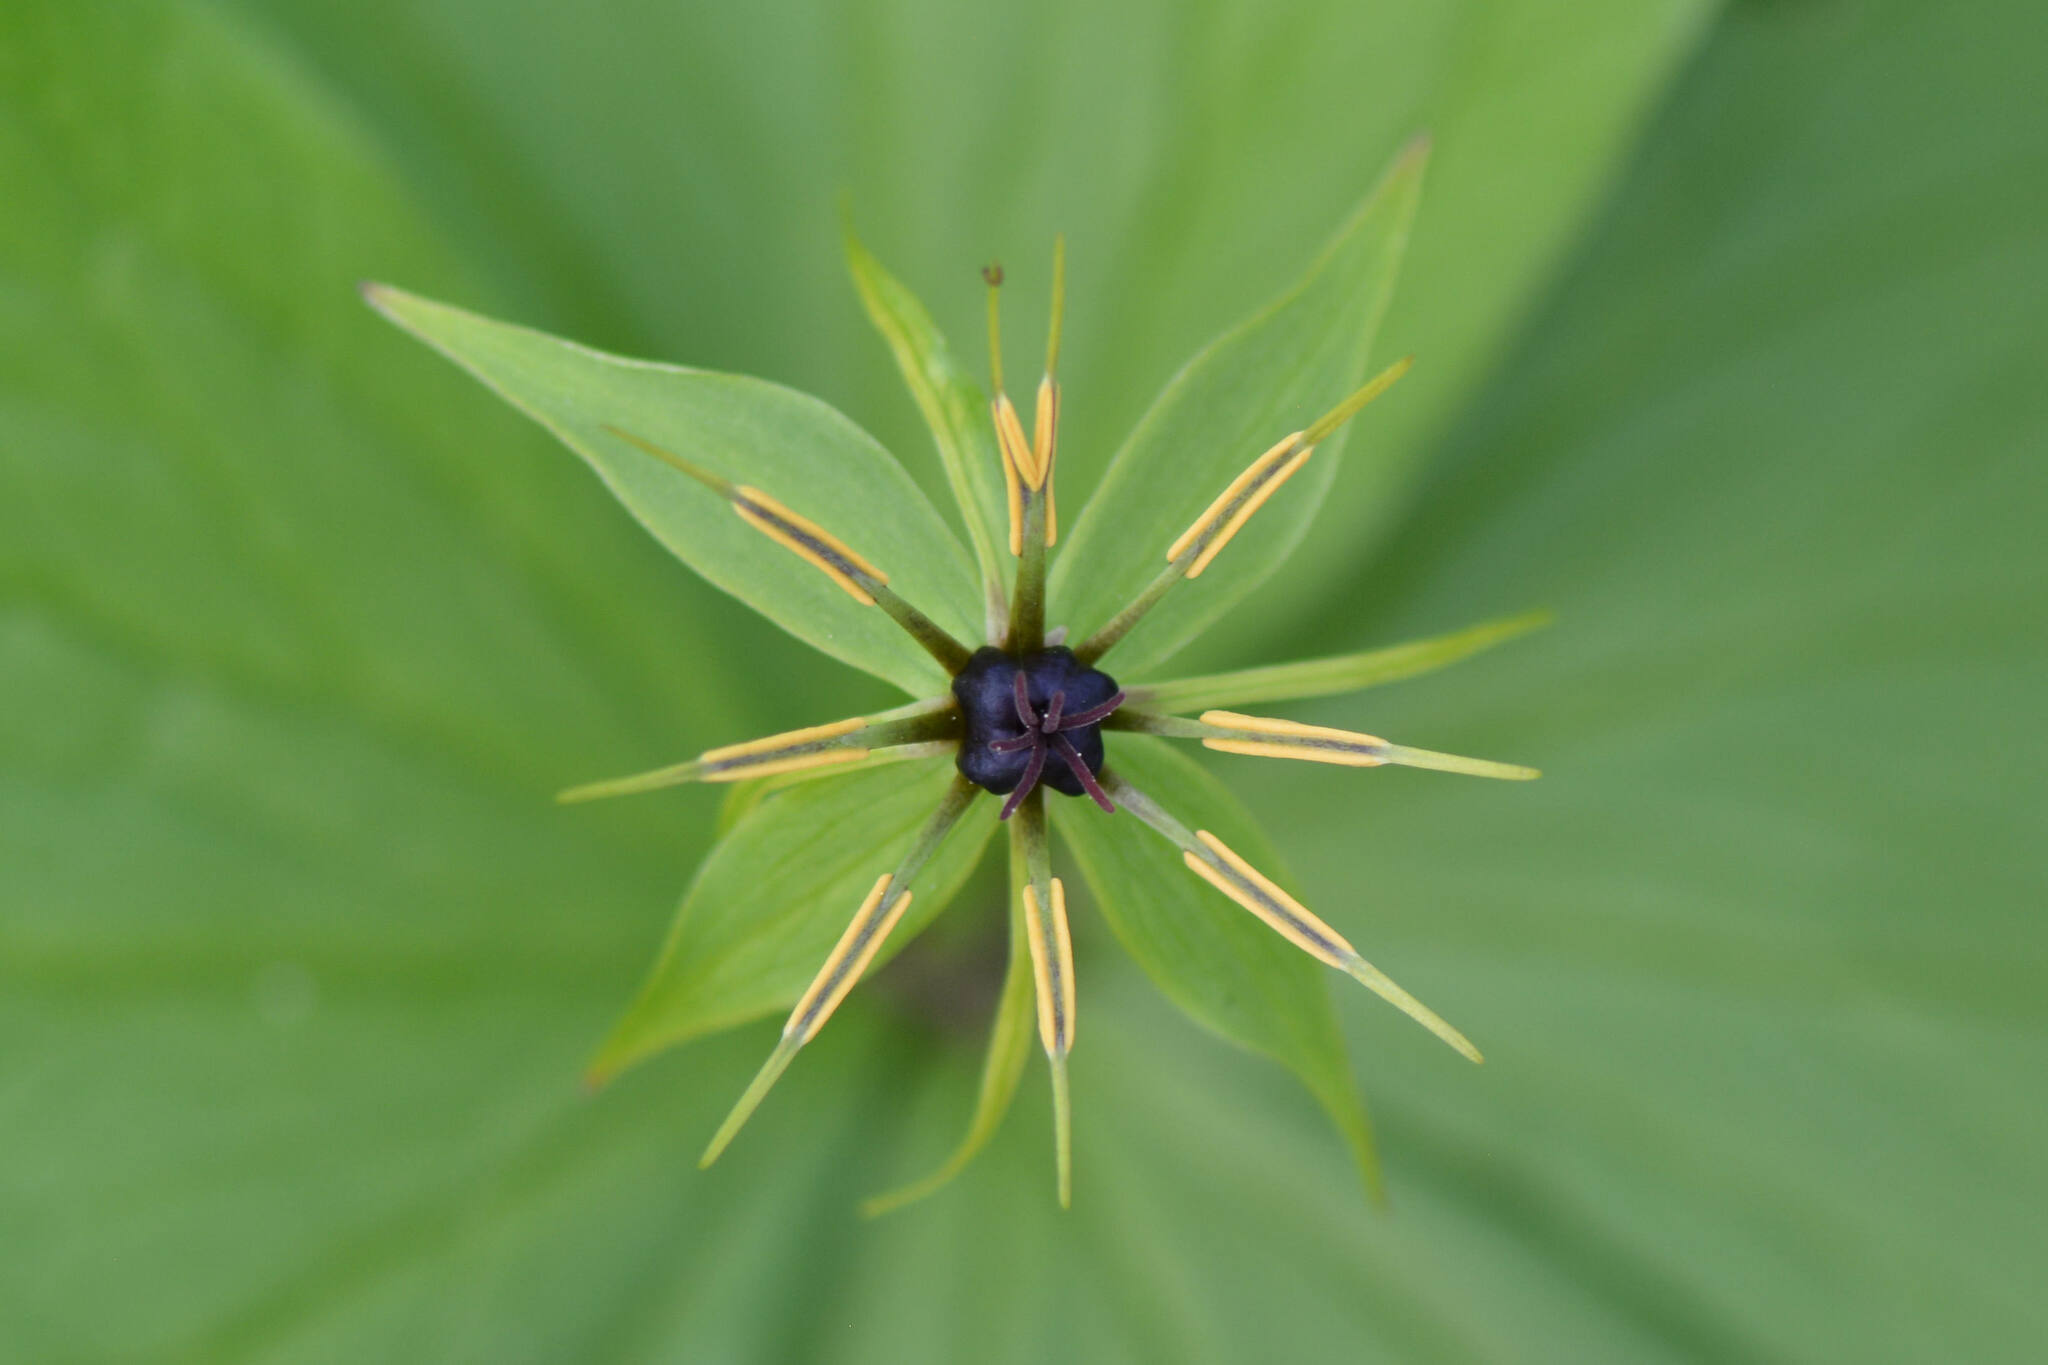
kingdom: Plantae
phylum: Tracheophyta
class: Liliopsida
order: Liliales
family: Melanthiaceae
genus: Paris
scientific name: Paris quadrifolia
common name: Herb-paris
